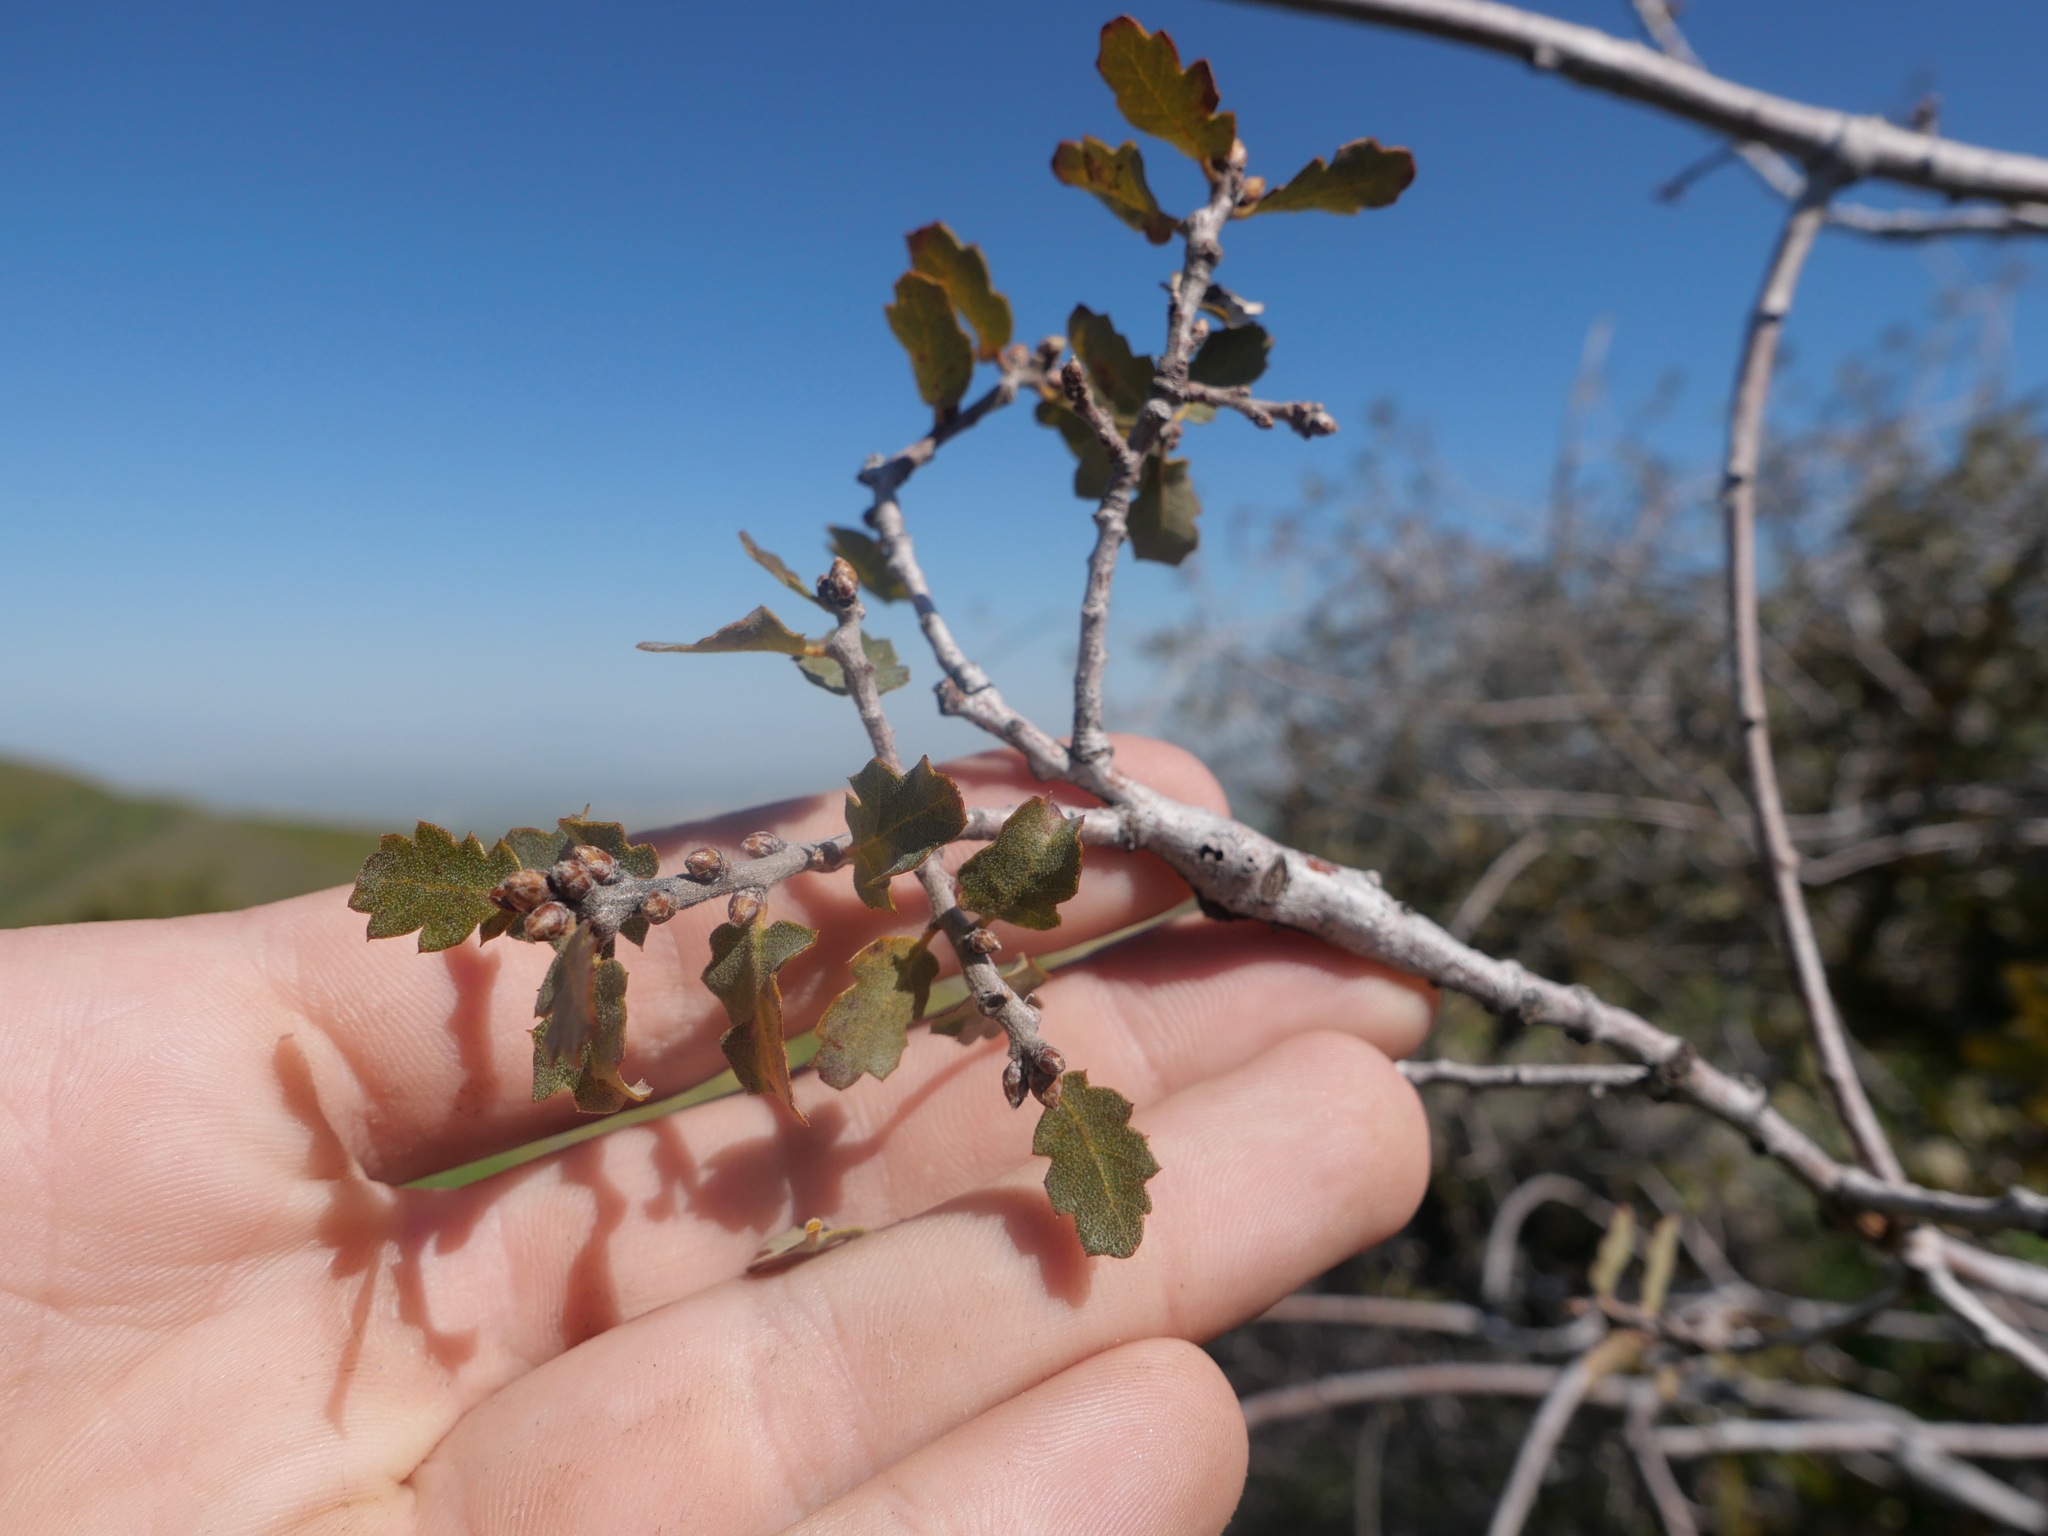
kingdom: Plantae
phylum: Tracheophyta
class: Magnoliopsida
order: Fagales
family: Fagaceae
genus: Quercus
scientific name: Quercus john-tuckeri
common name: Tucker's oak
